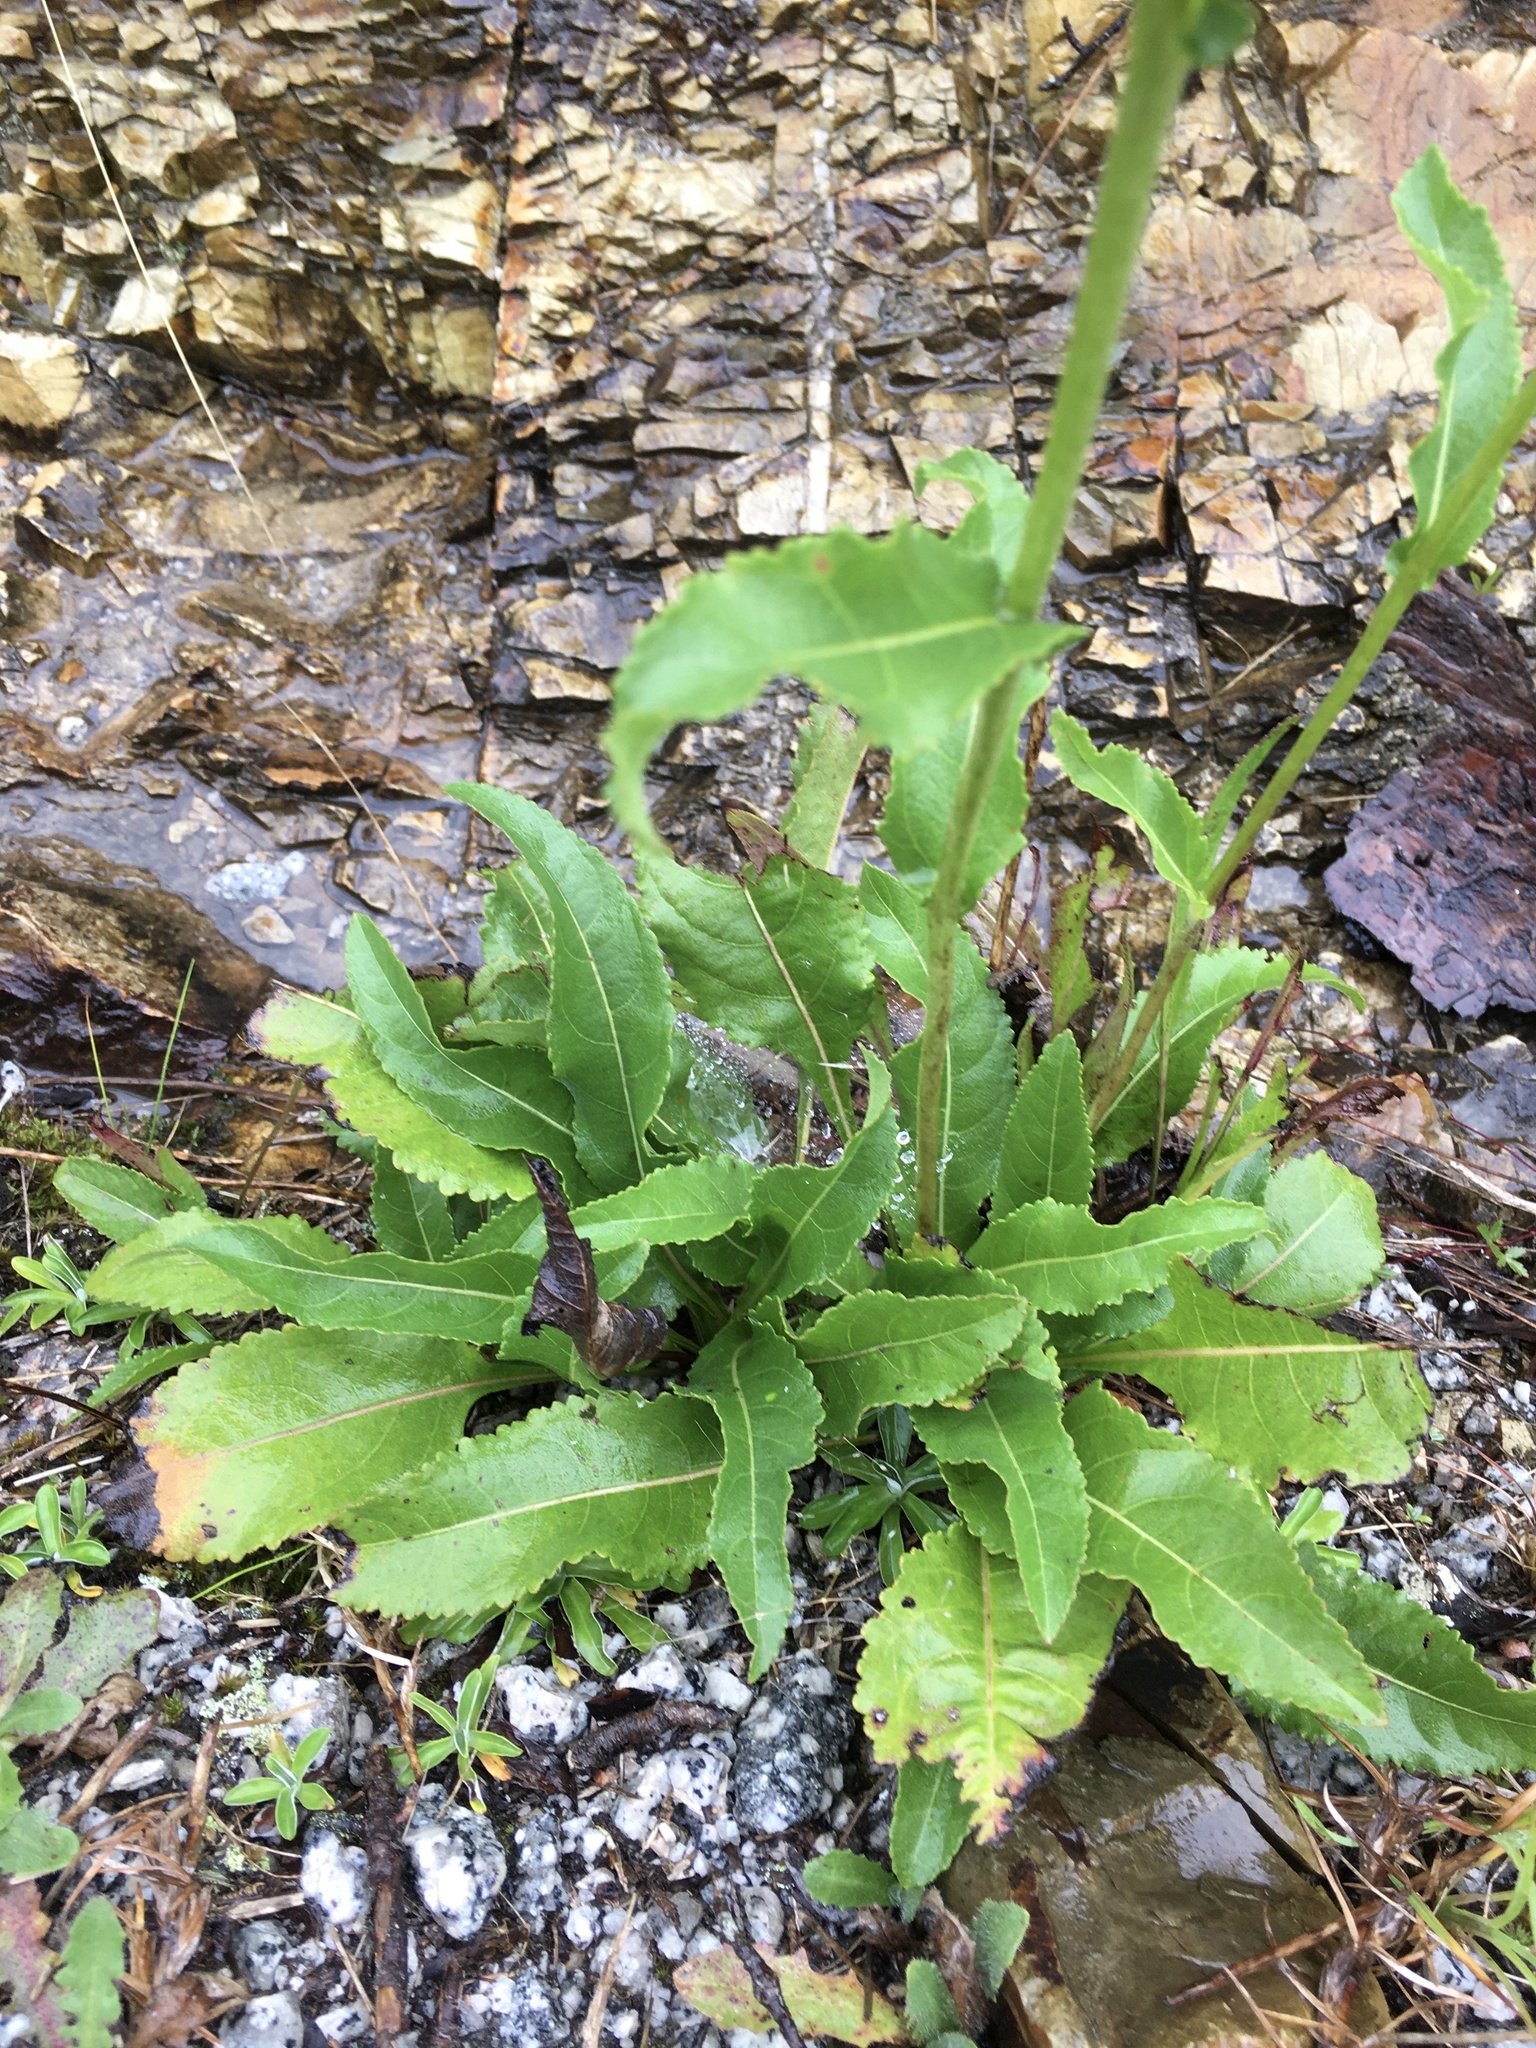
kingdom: Plantae
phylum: Tracheophyta
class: Magnoliopsida
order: Asterales
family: Asteraceae
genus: Parthenium
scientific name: Parthenium integrifolium
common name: American feverfew
